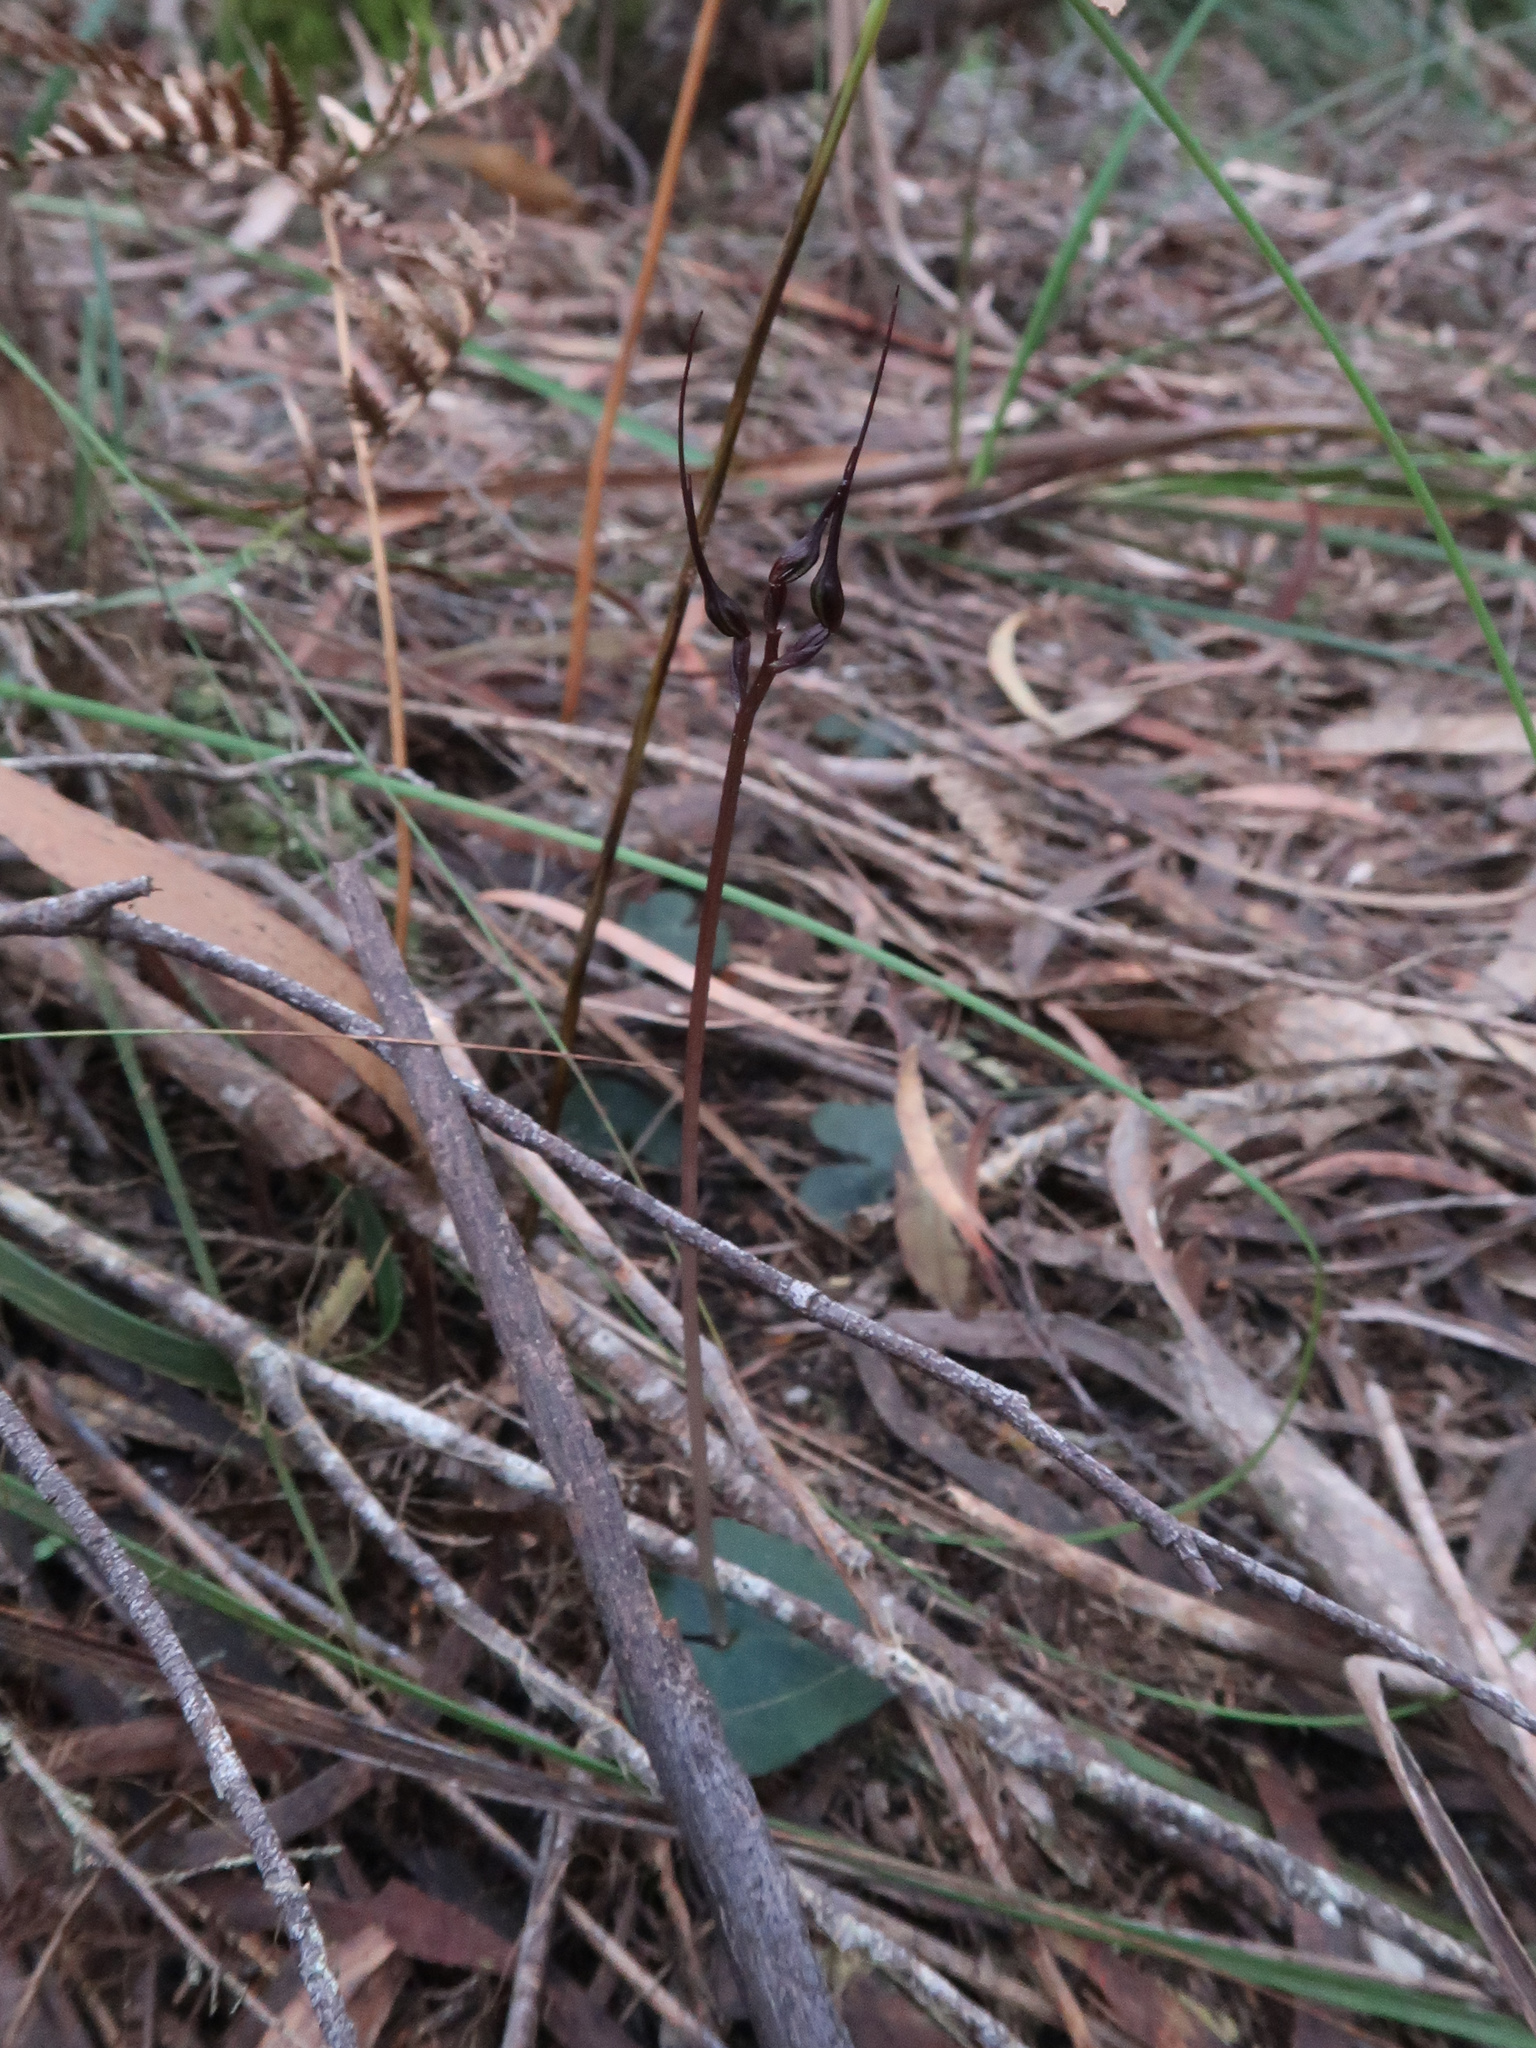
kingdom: Plantae
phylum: Tracheophyta
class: Liliopsida
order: Asparagales
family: Orchidaceae
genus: Acianthus
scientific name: Acianthus caudatus
